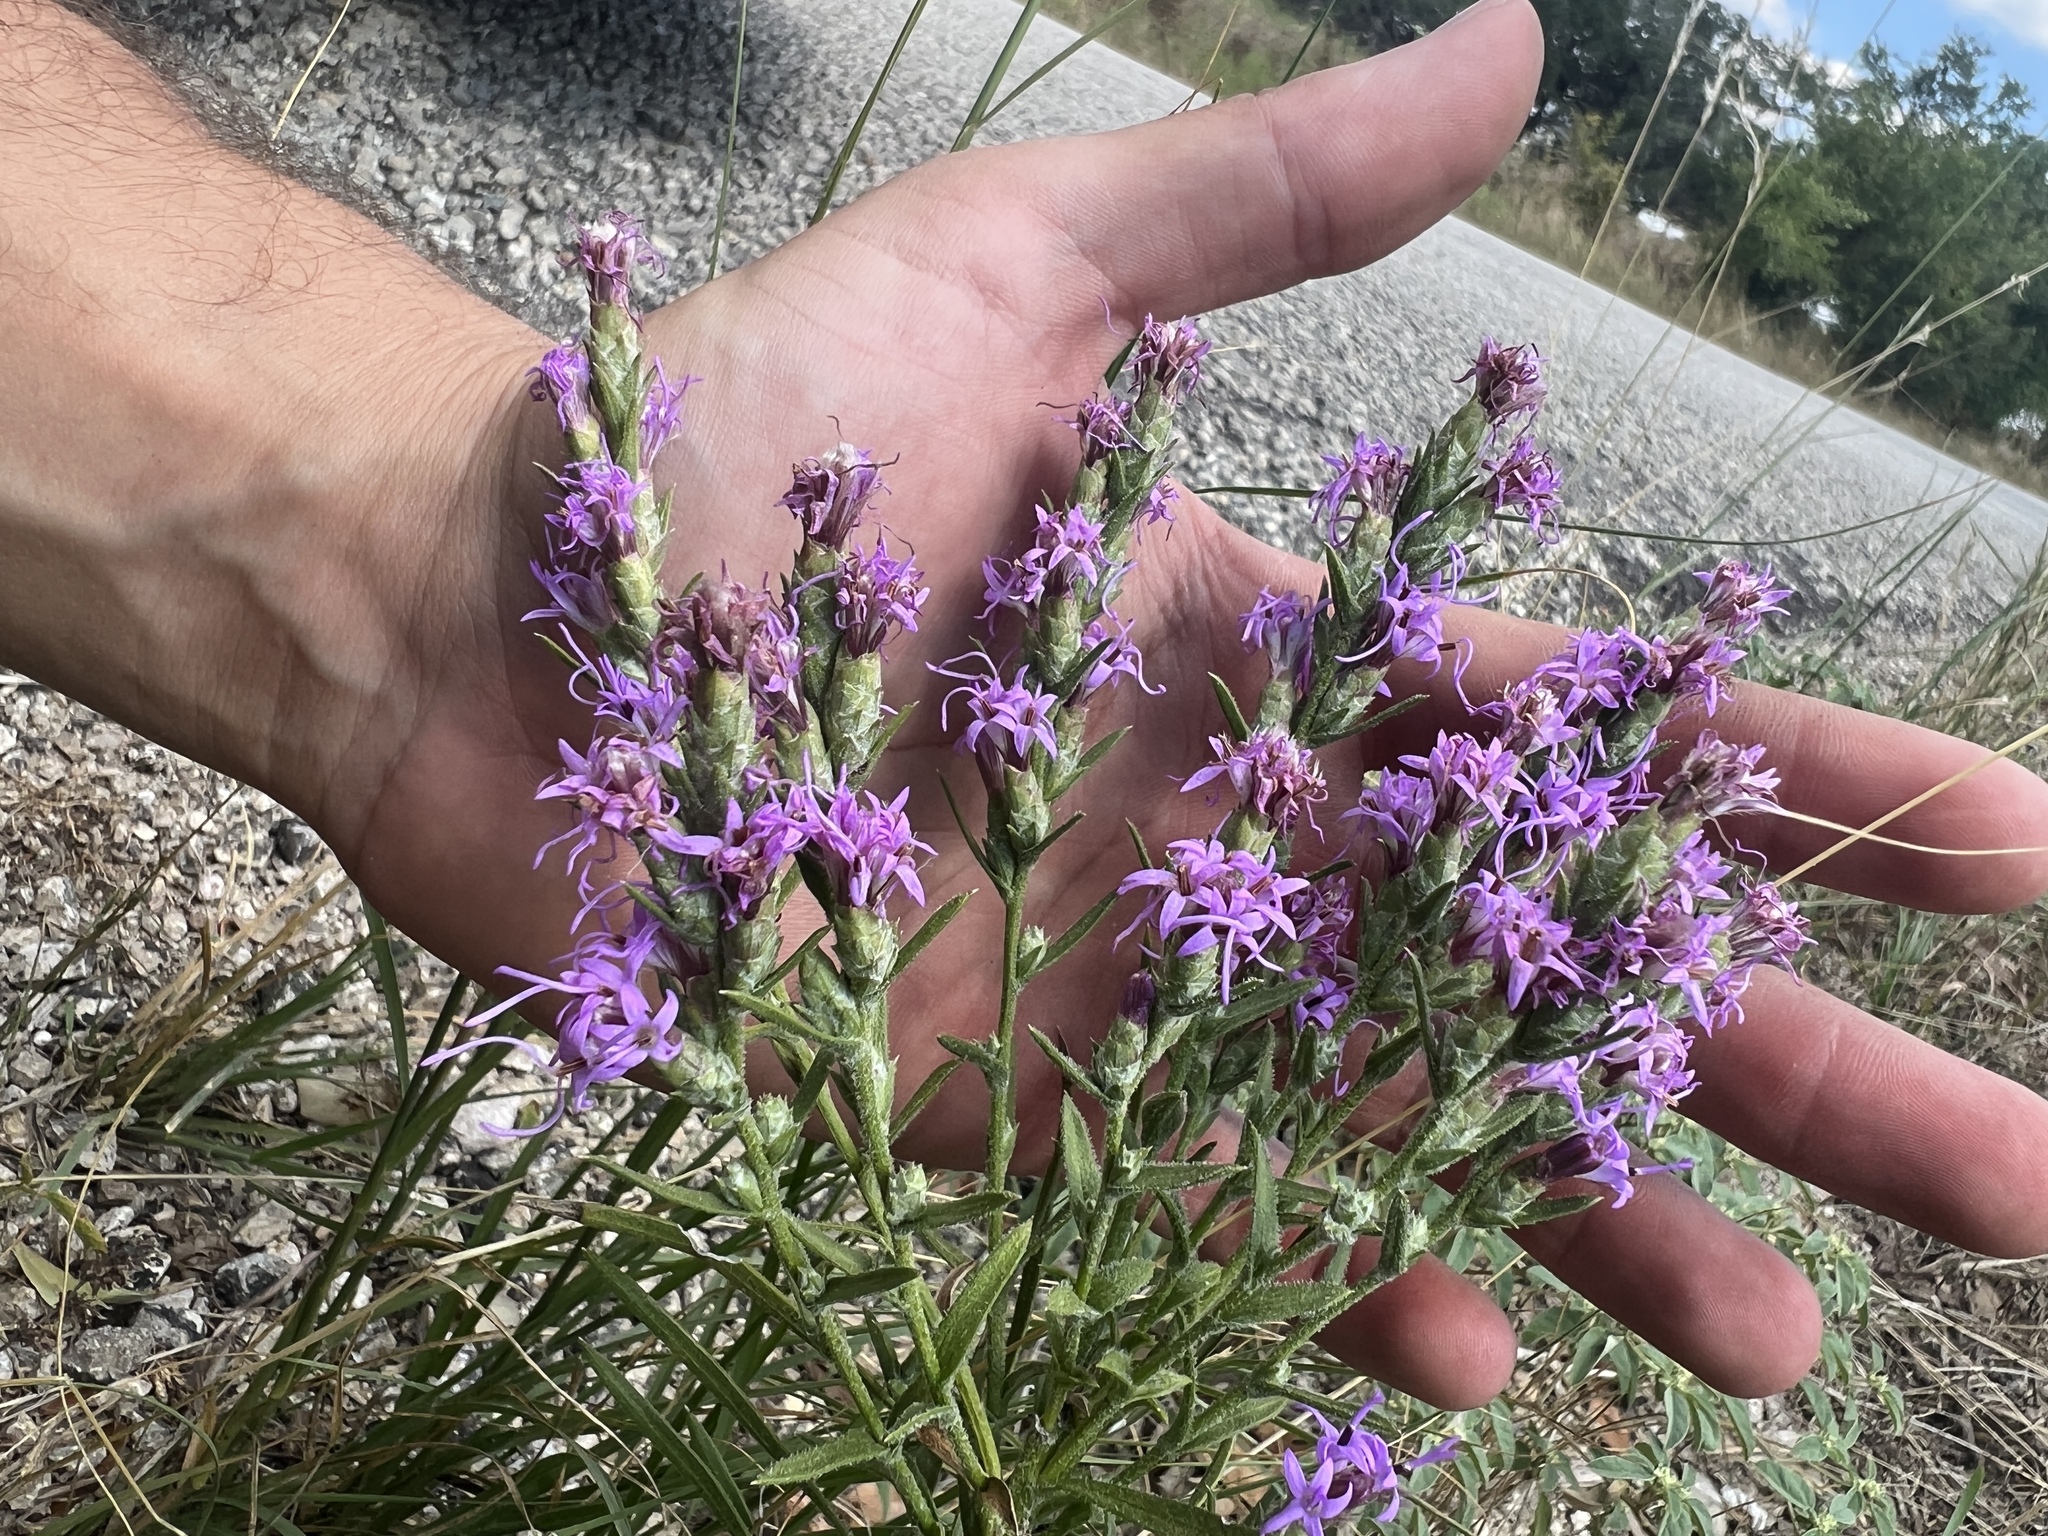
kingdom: Plantae
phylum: Tracheophyta
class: Magnoliopsida
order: Asterales
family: Asteraceae
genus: Liatris
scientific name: Liatris punctata
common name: Dotted gayfeather
